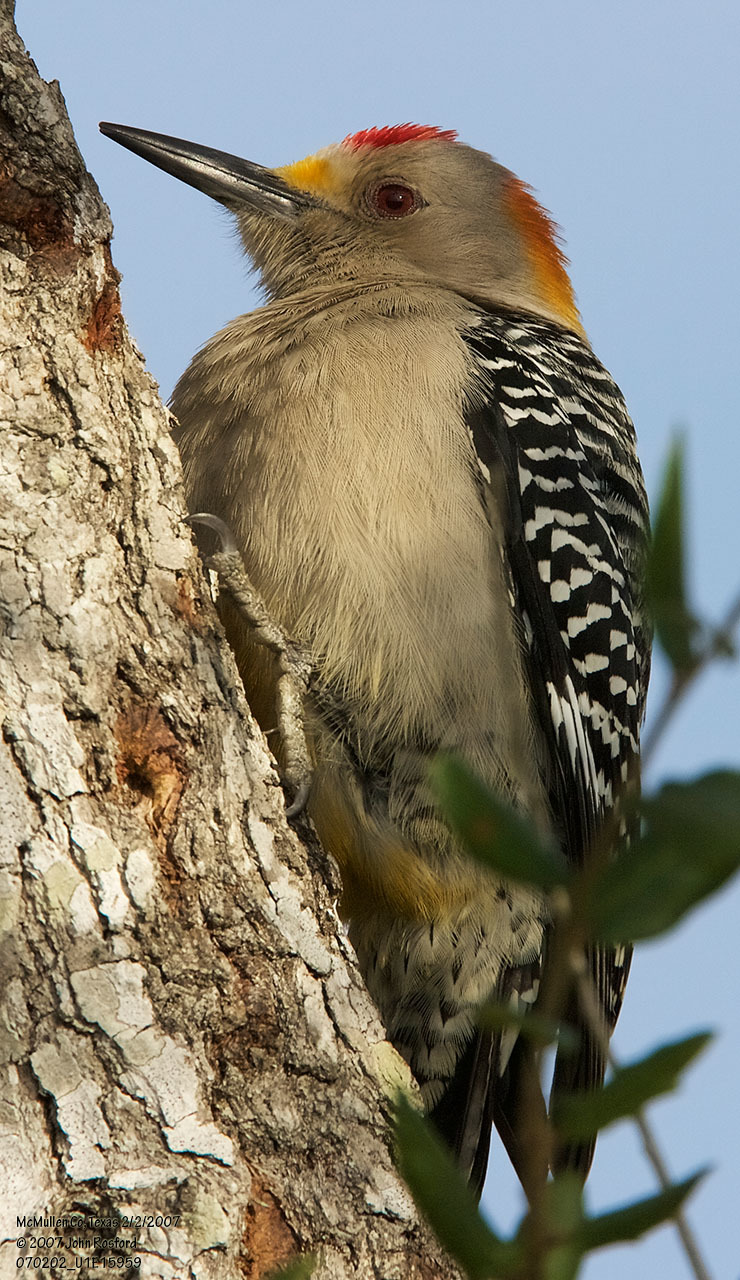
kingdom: Animalia
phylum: Chordata
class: Aves
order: Piciformes
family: Picidae
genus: Melanerpes
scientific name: Melanerpes aurifrons
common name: Golden-fronted woodpecker
